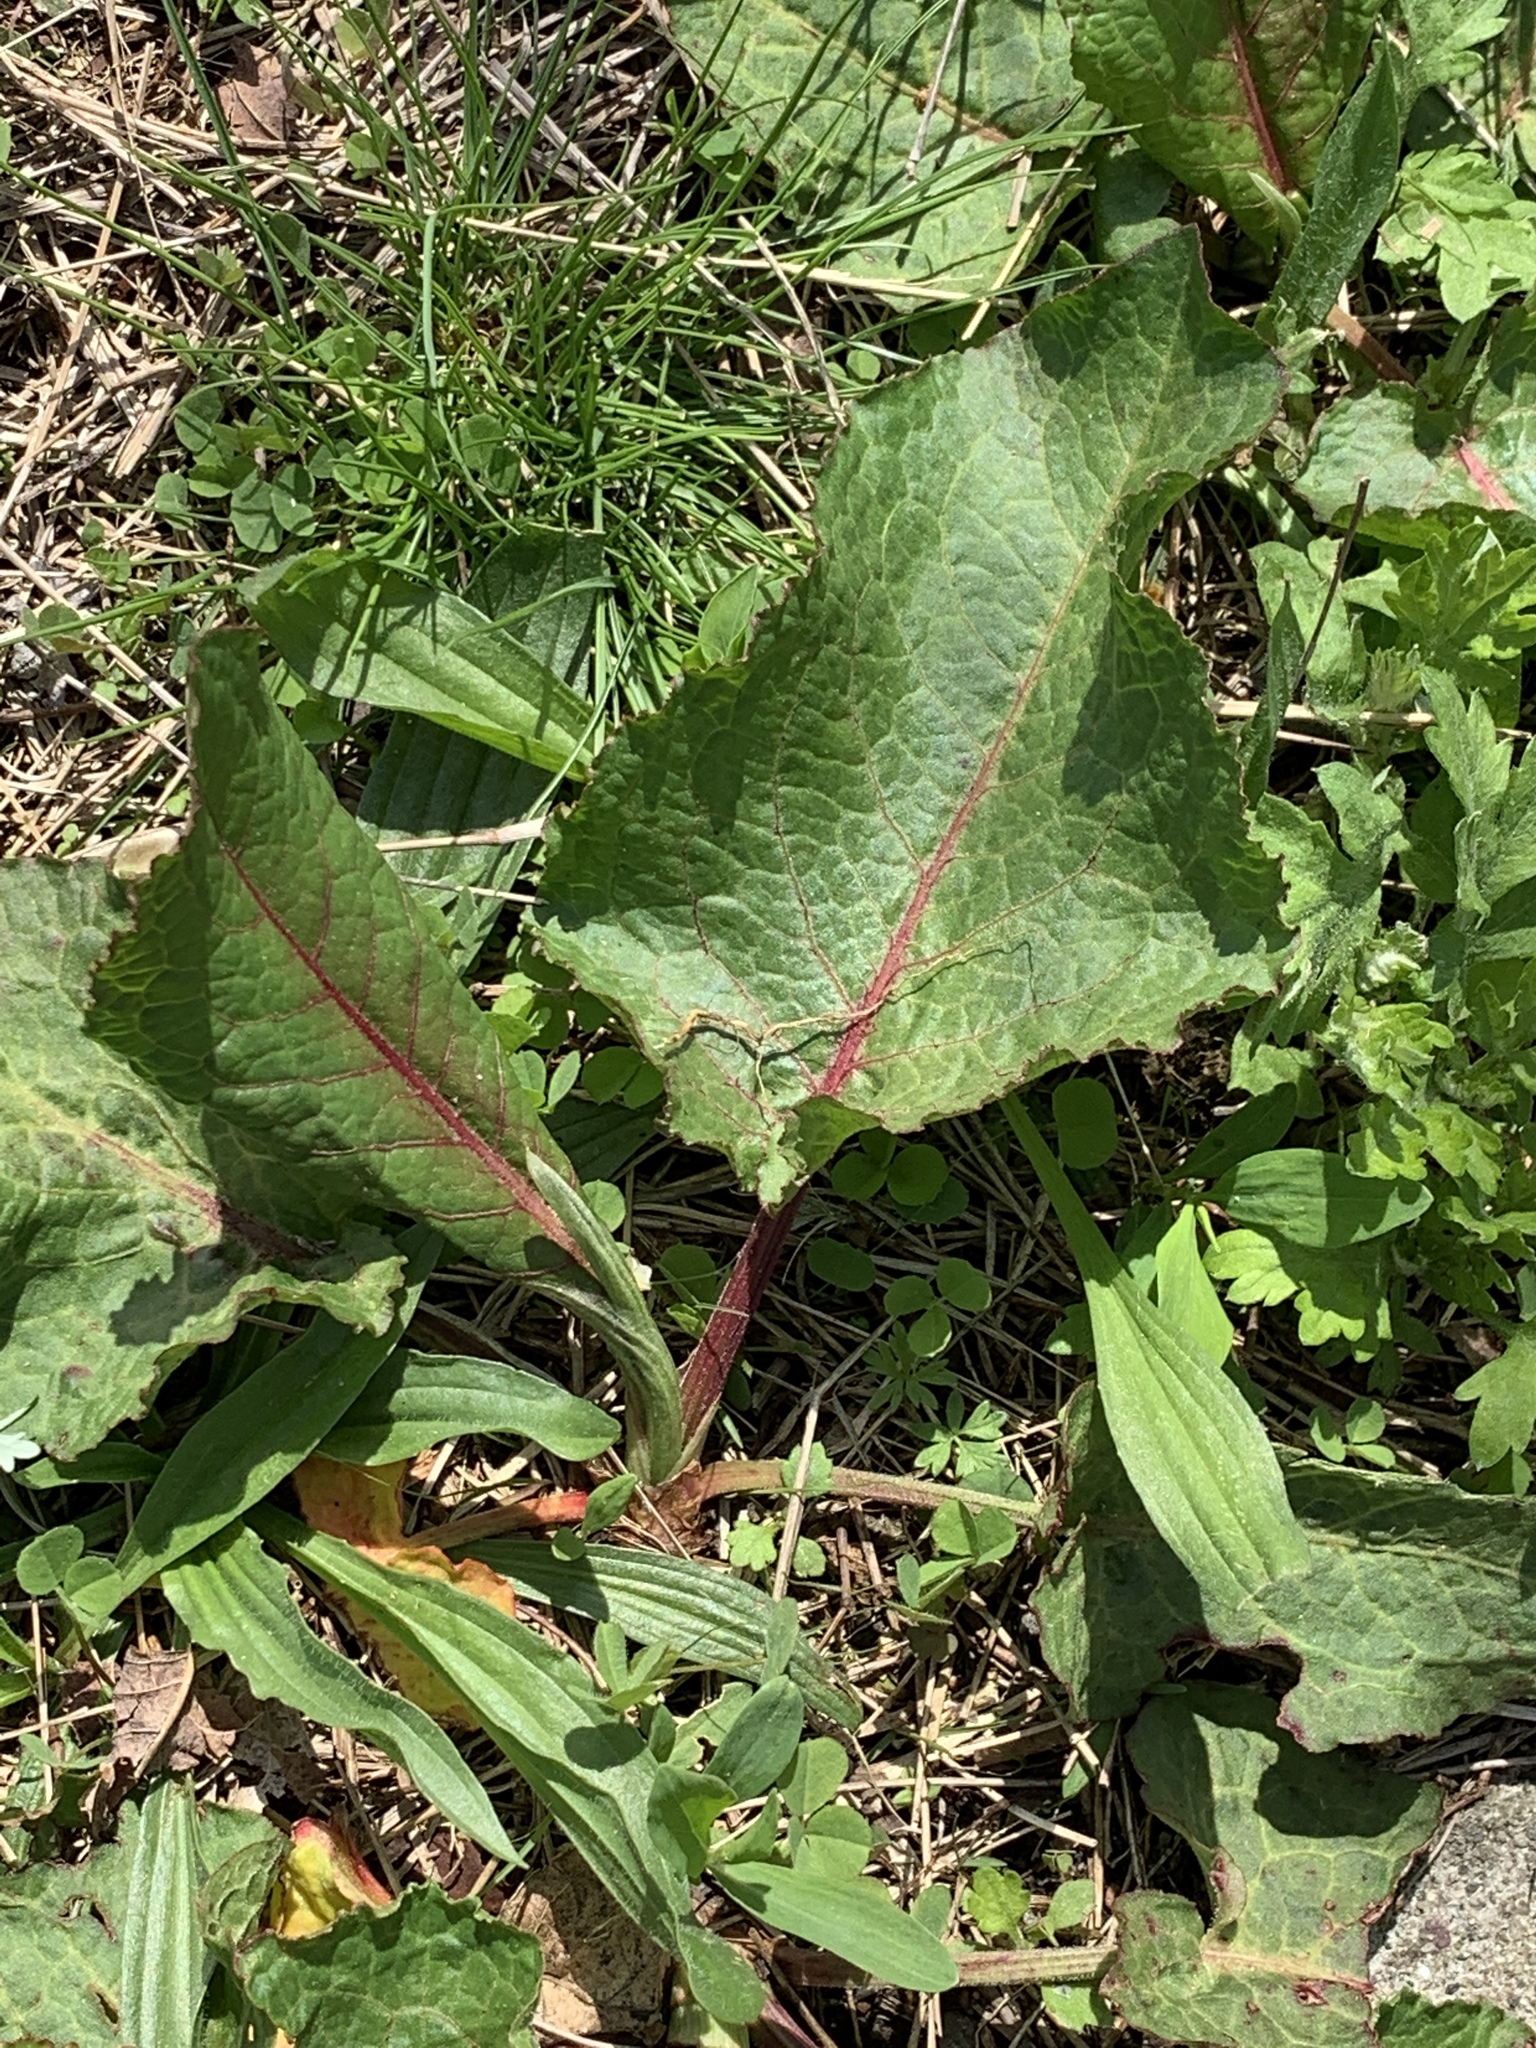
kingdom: Plantae
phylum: Tracheophyta
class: Magnoliopsida
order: Caryophyllales
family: Polygonaceae
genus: Rumex
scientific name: Rumex obtusifolius
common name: Bitter dock
